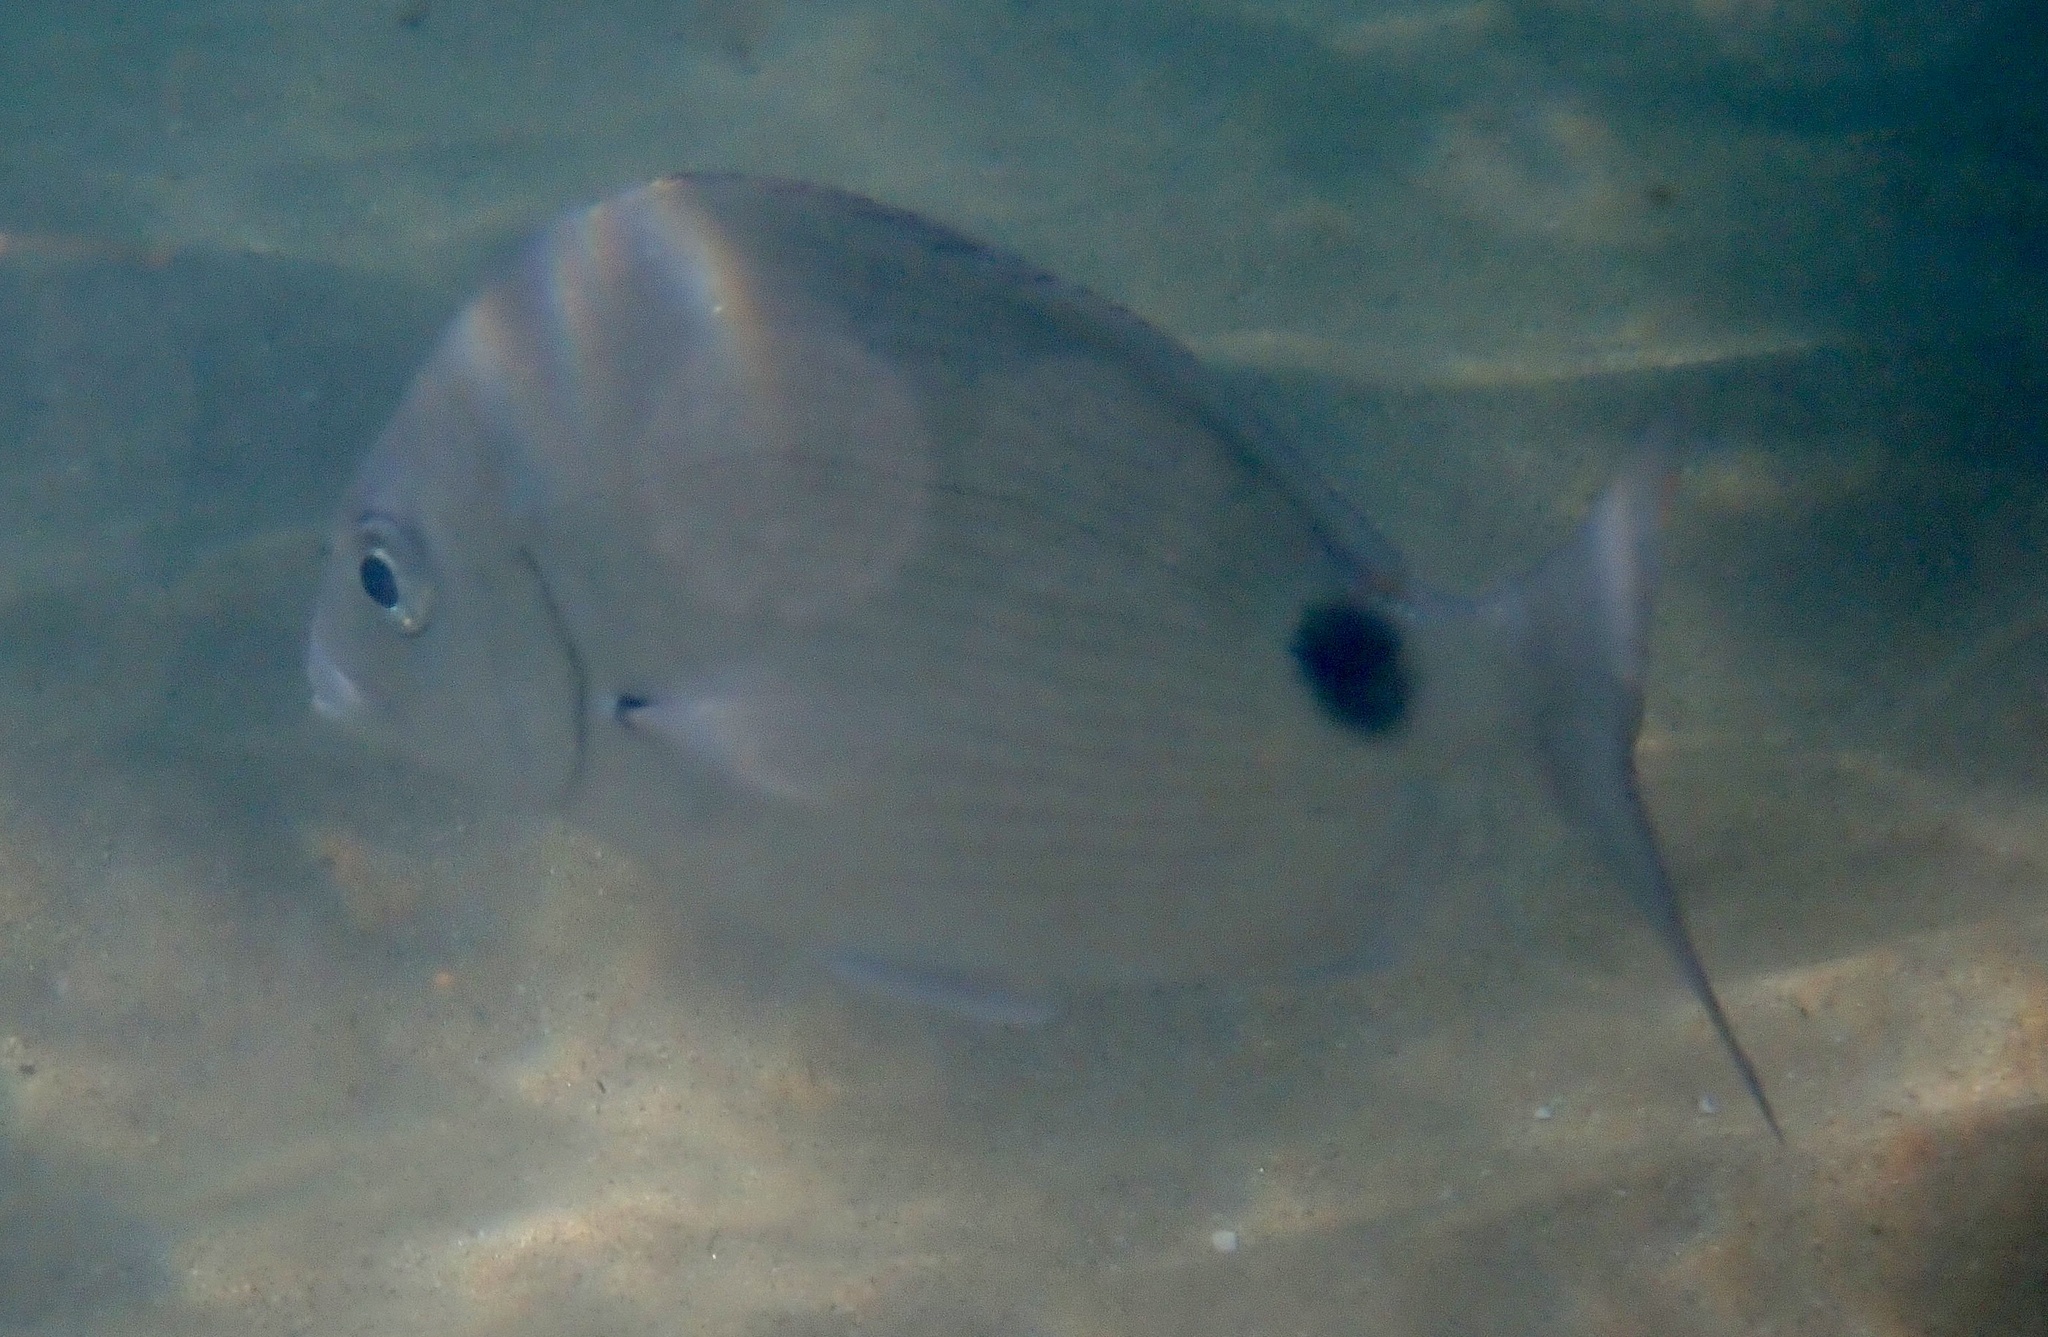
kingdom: Animalia
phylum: Chordata
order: Perciformes
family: Sparidae
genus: Diplodus
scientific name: Diplodus capensis
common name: Blacktail
